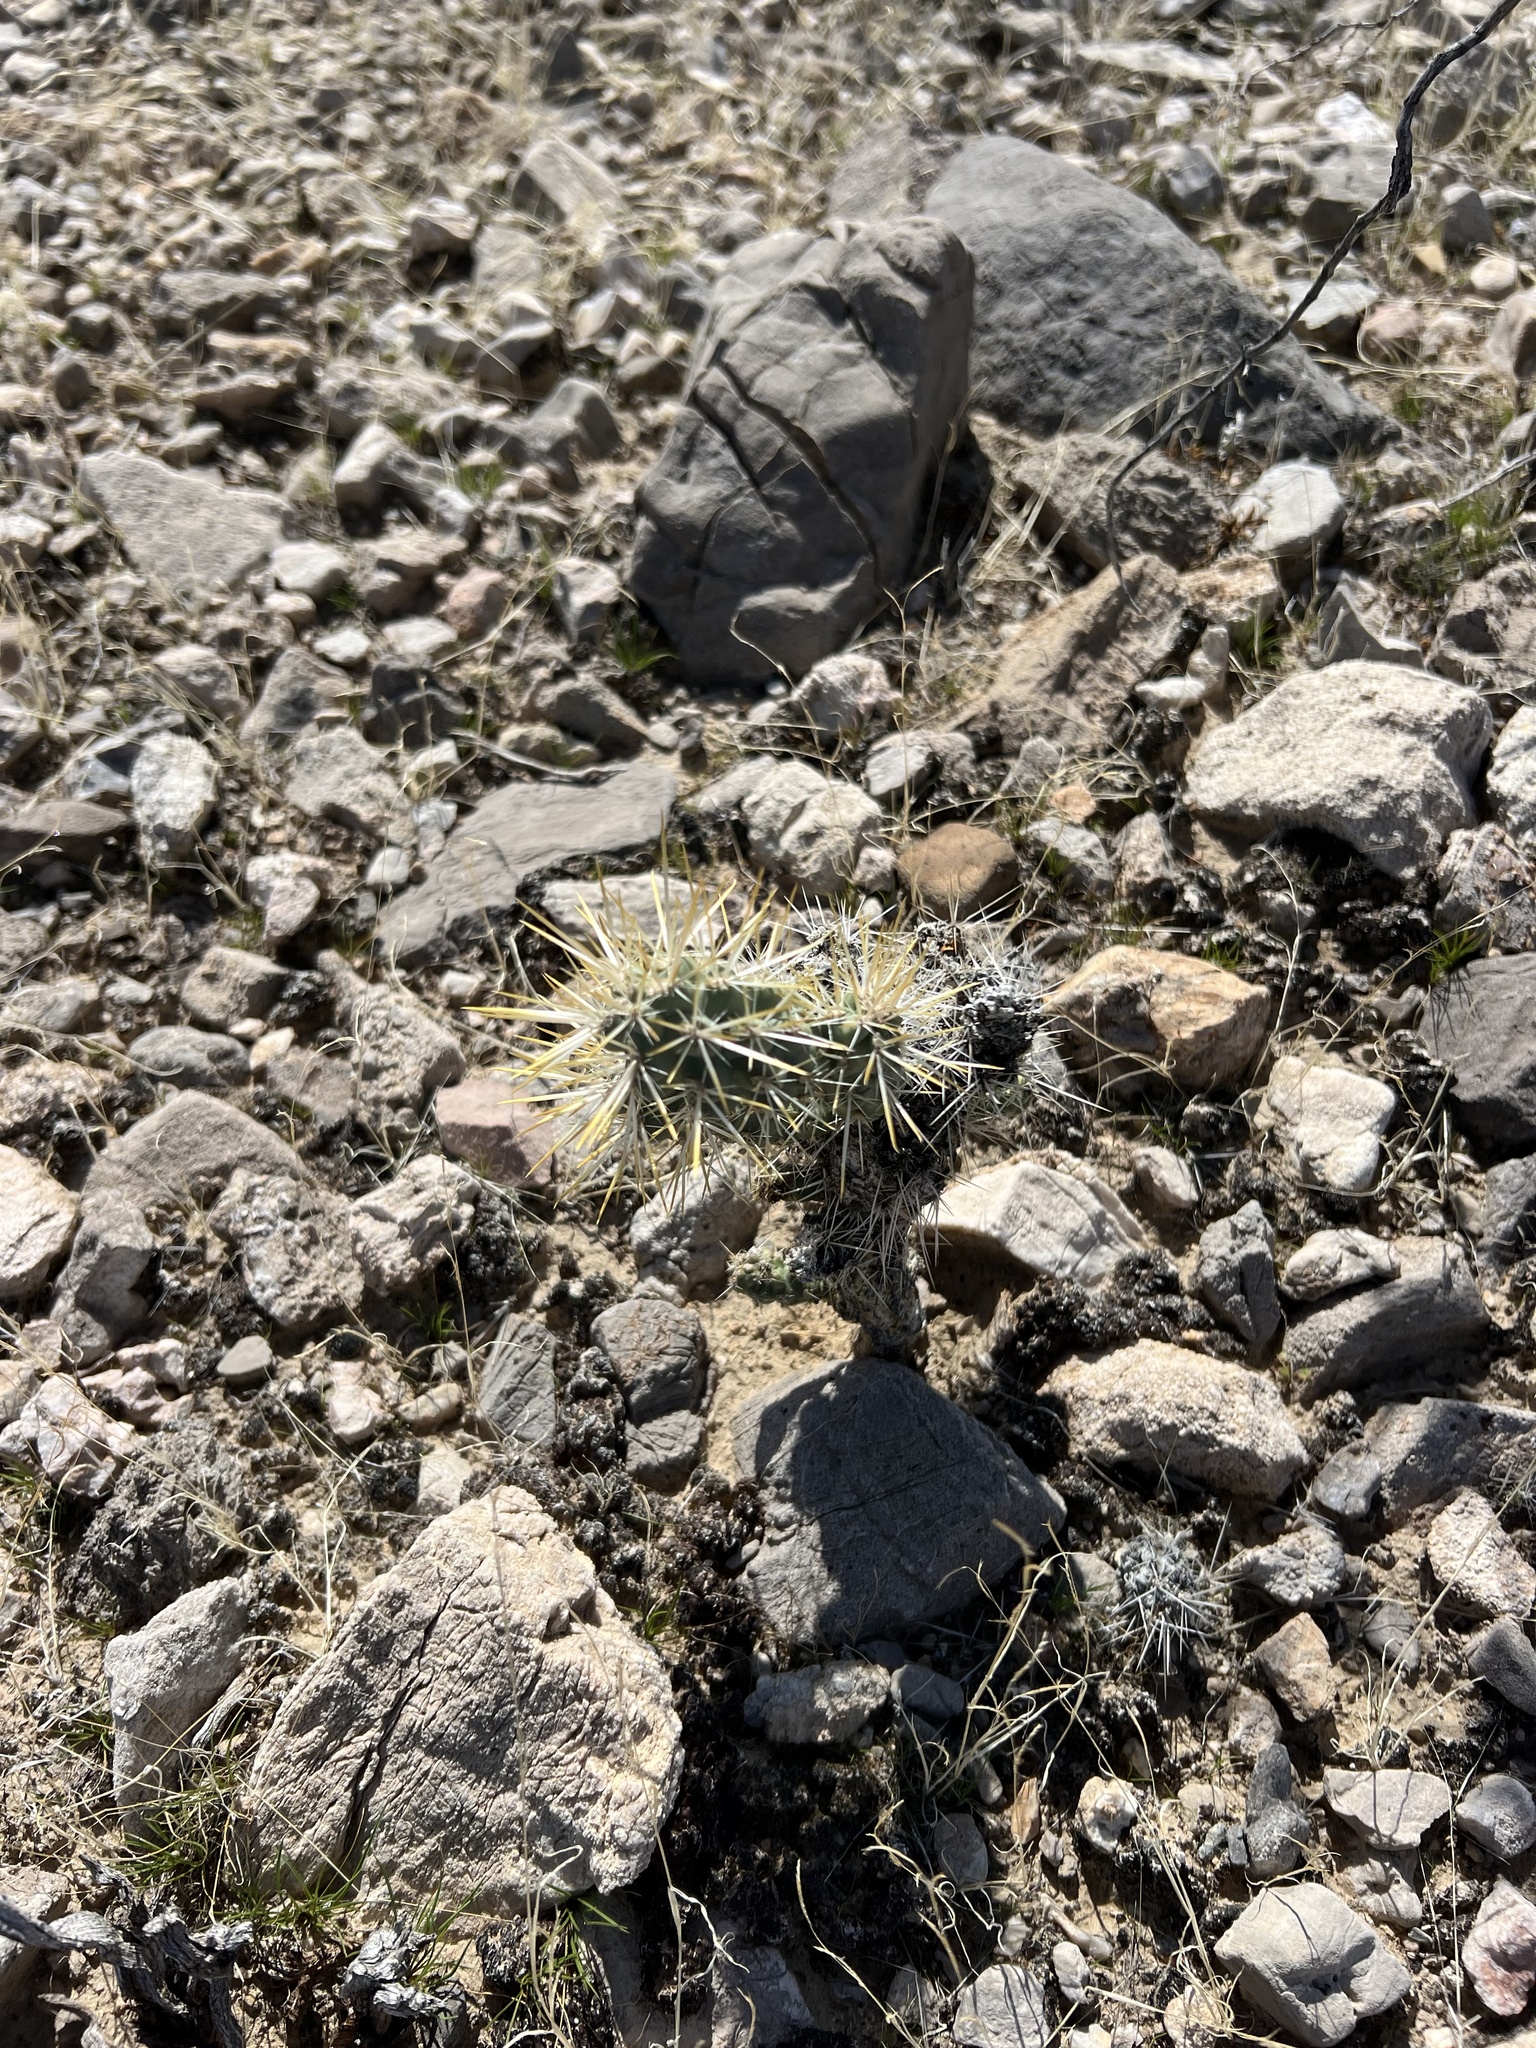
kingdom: Plantae
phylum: Tracheophyta
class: Magnoliopsida
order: Caryophyllales
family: Cactaceae
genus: Cylindropuntia
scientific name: Cylindropuntia echinocarpa
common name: Ground cholla
